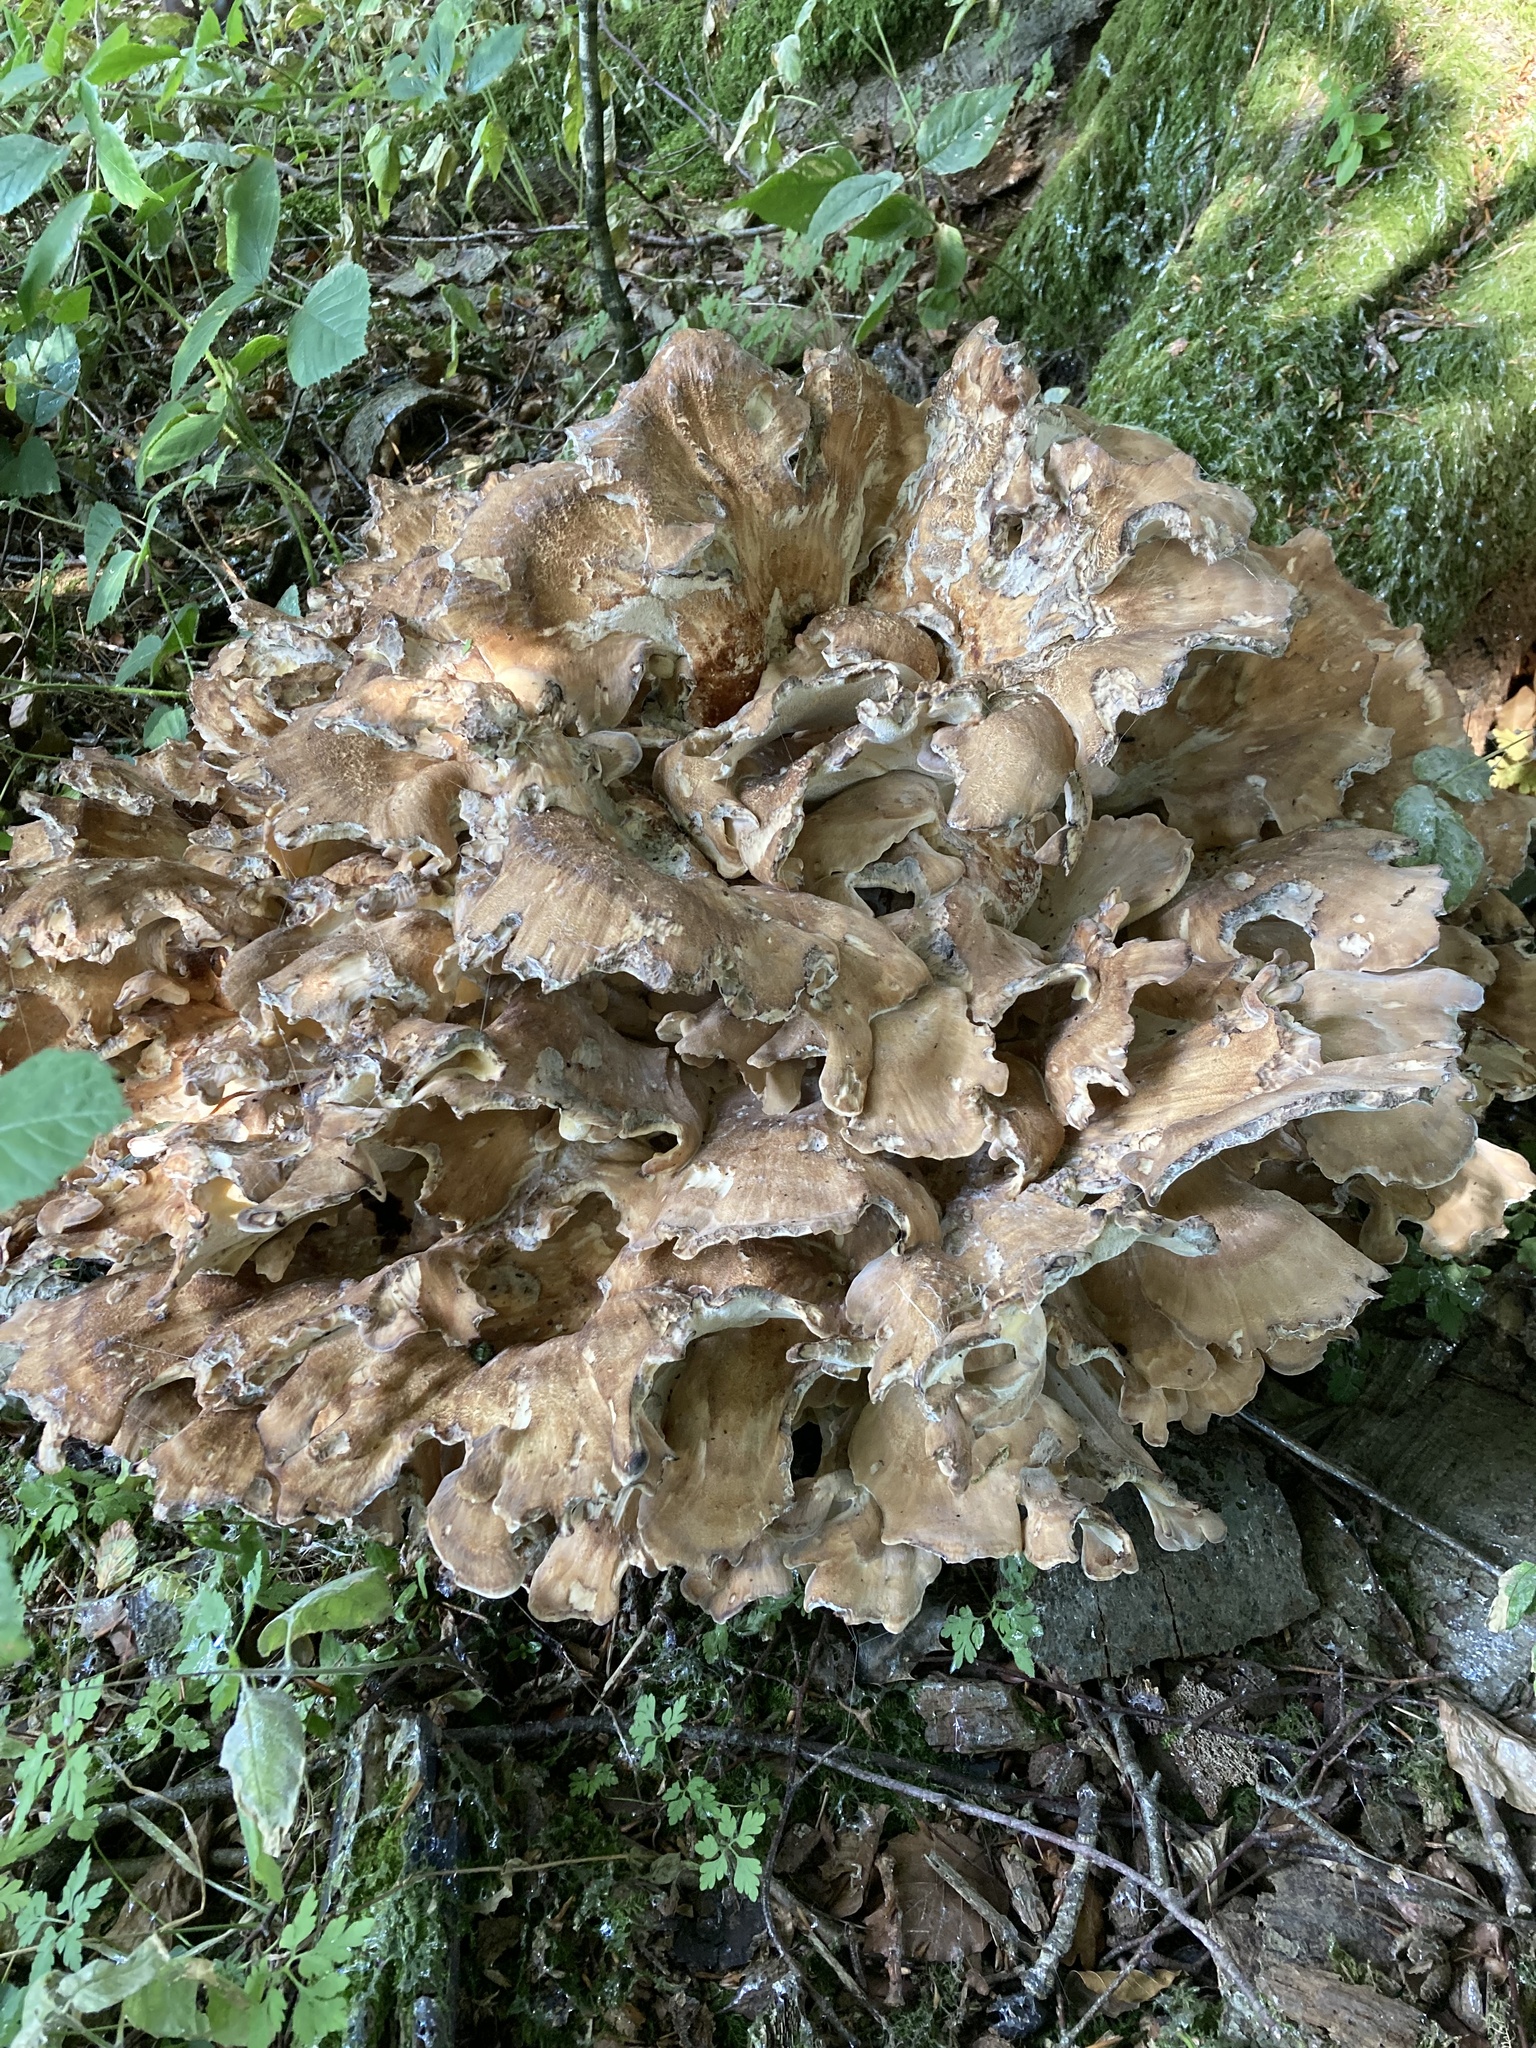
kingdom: Fungi
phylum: Basidiomycota
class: Agaricomycetes
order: Polyporales
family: Meripilaceae
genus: Meripilus
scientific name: Meripilus giganteus
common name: Giant polypore
